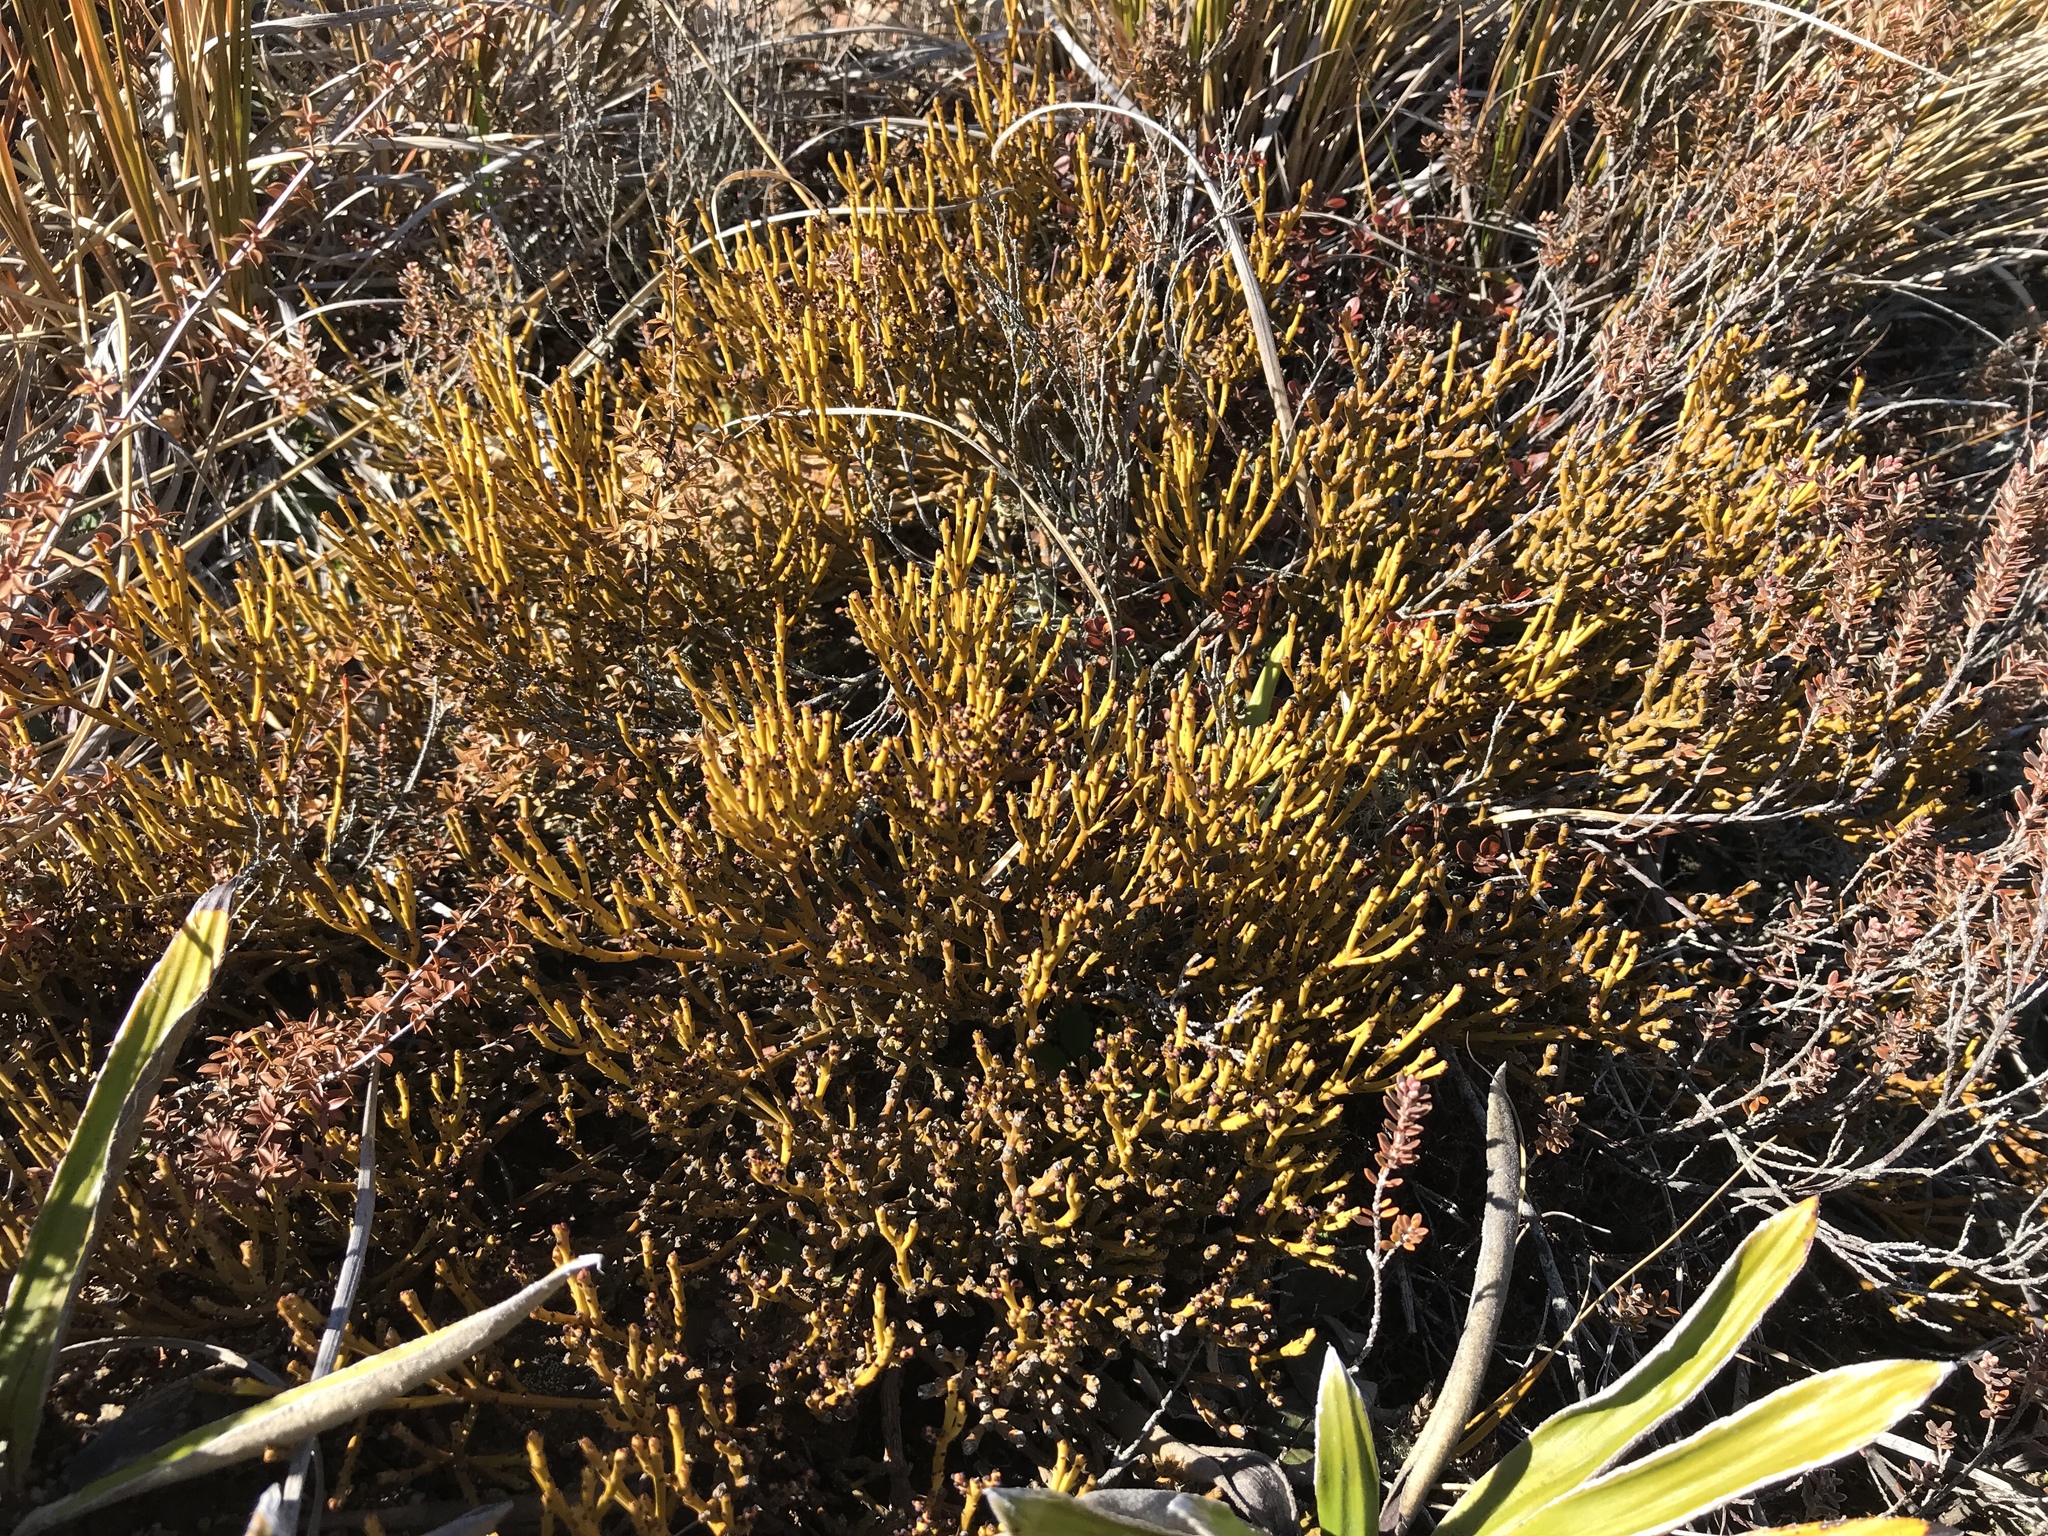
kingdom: Plantae
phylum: Tracheophyta
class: Magnoliopsida
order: Santalales
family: Santalaceae
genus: Exocarpos
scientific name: Exocarpos bidwillii
